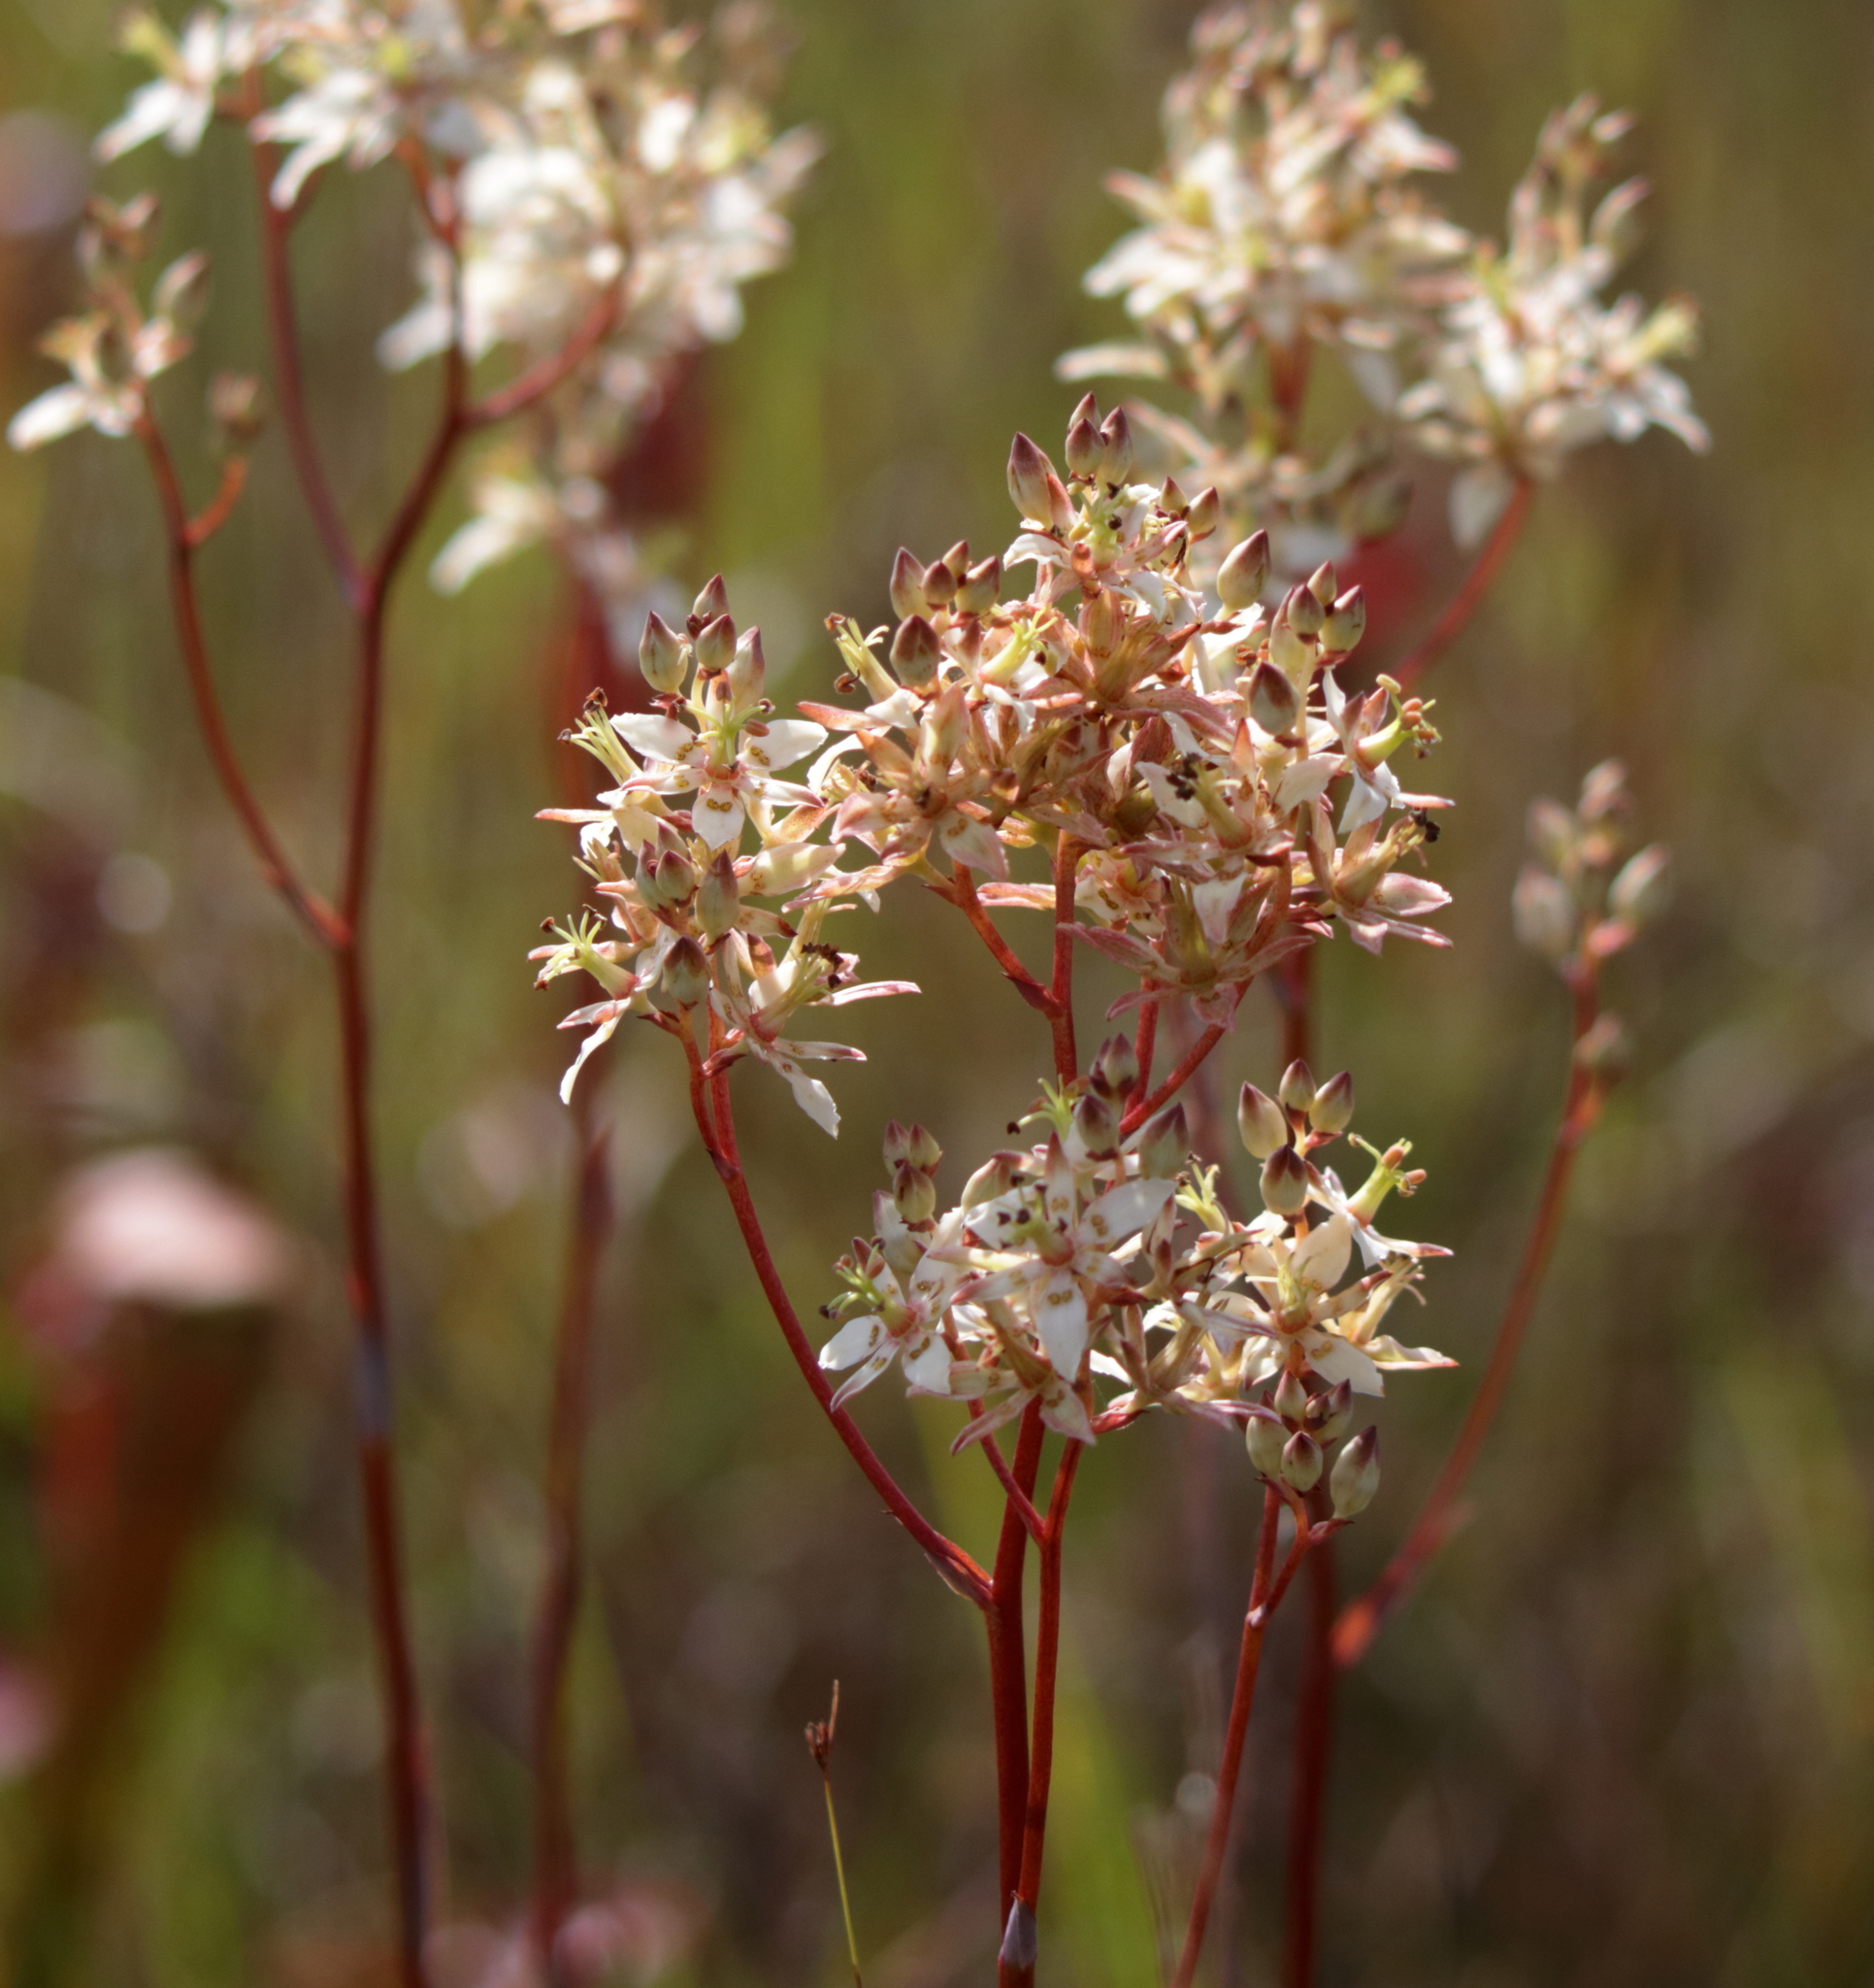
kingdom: Plantae
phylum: Tracheophyta
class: Liliopsida
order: Liliales
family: Melanthiaceae
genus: Zigadenus
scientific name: Zigadenus glaberrimus
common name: Sandbog death camas
